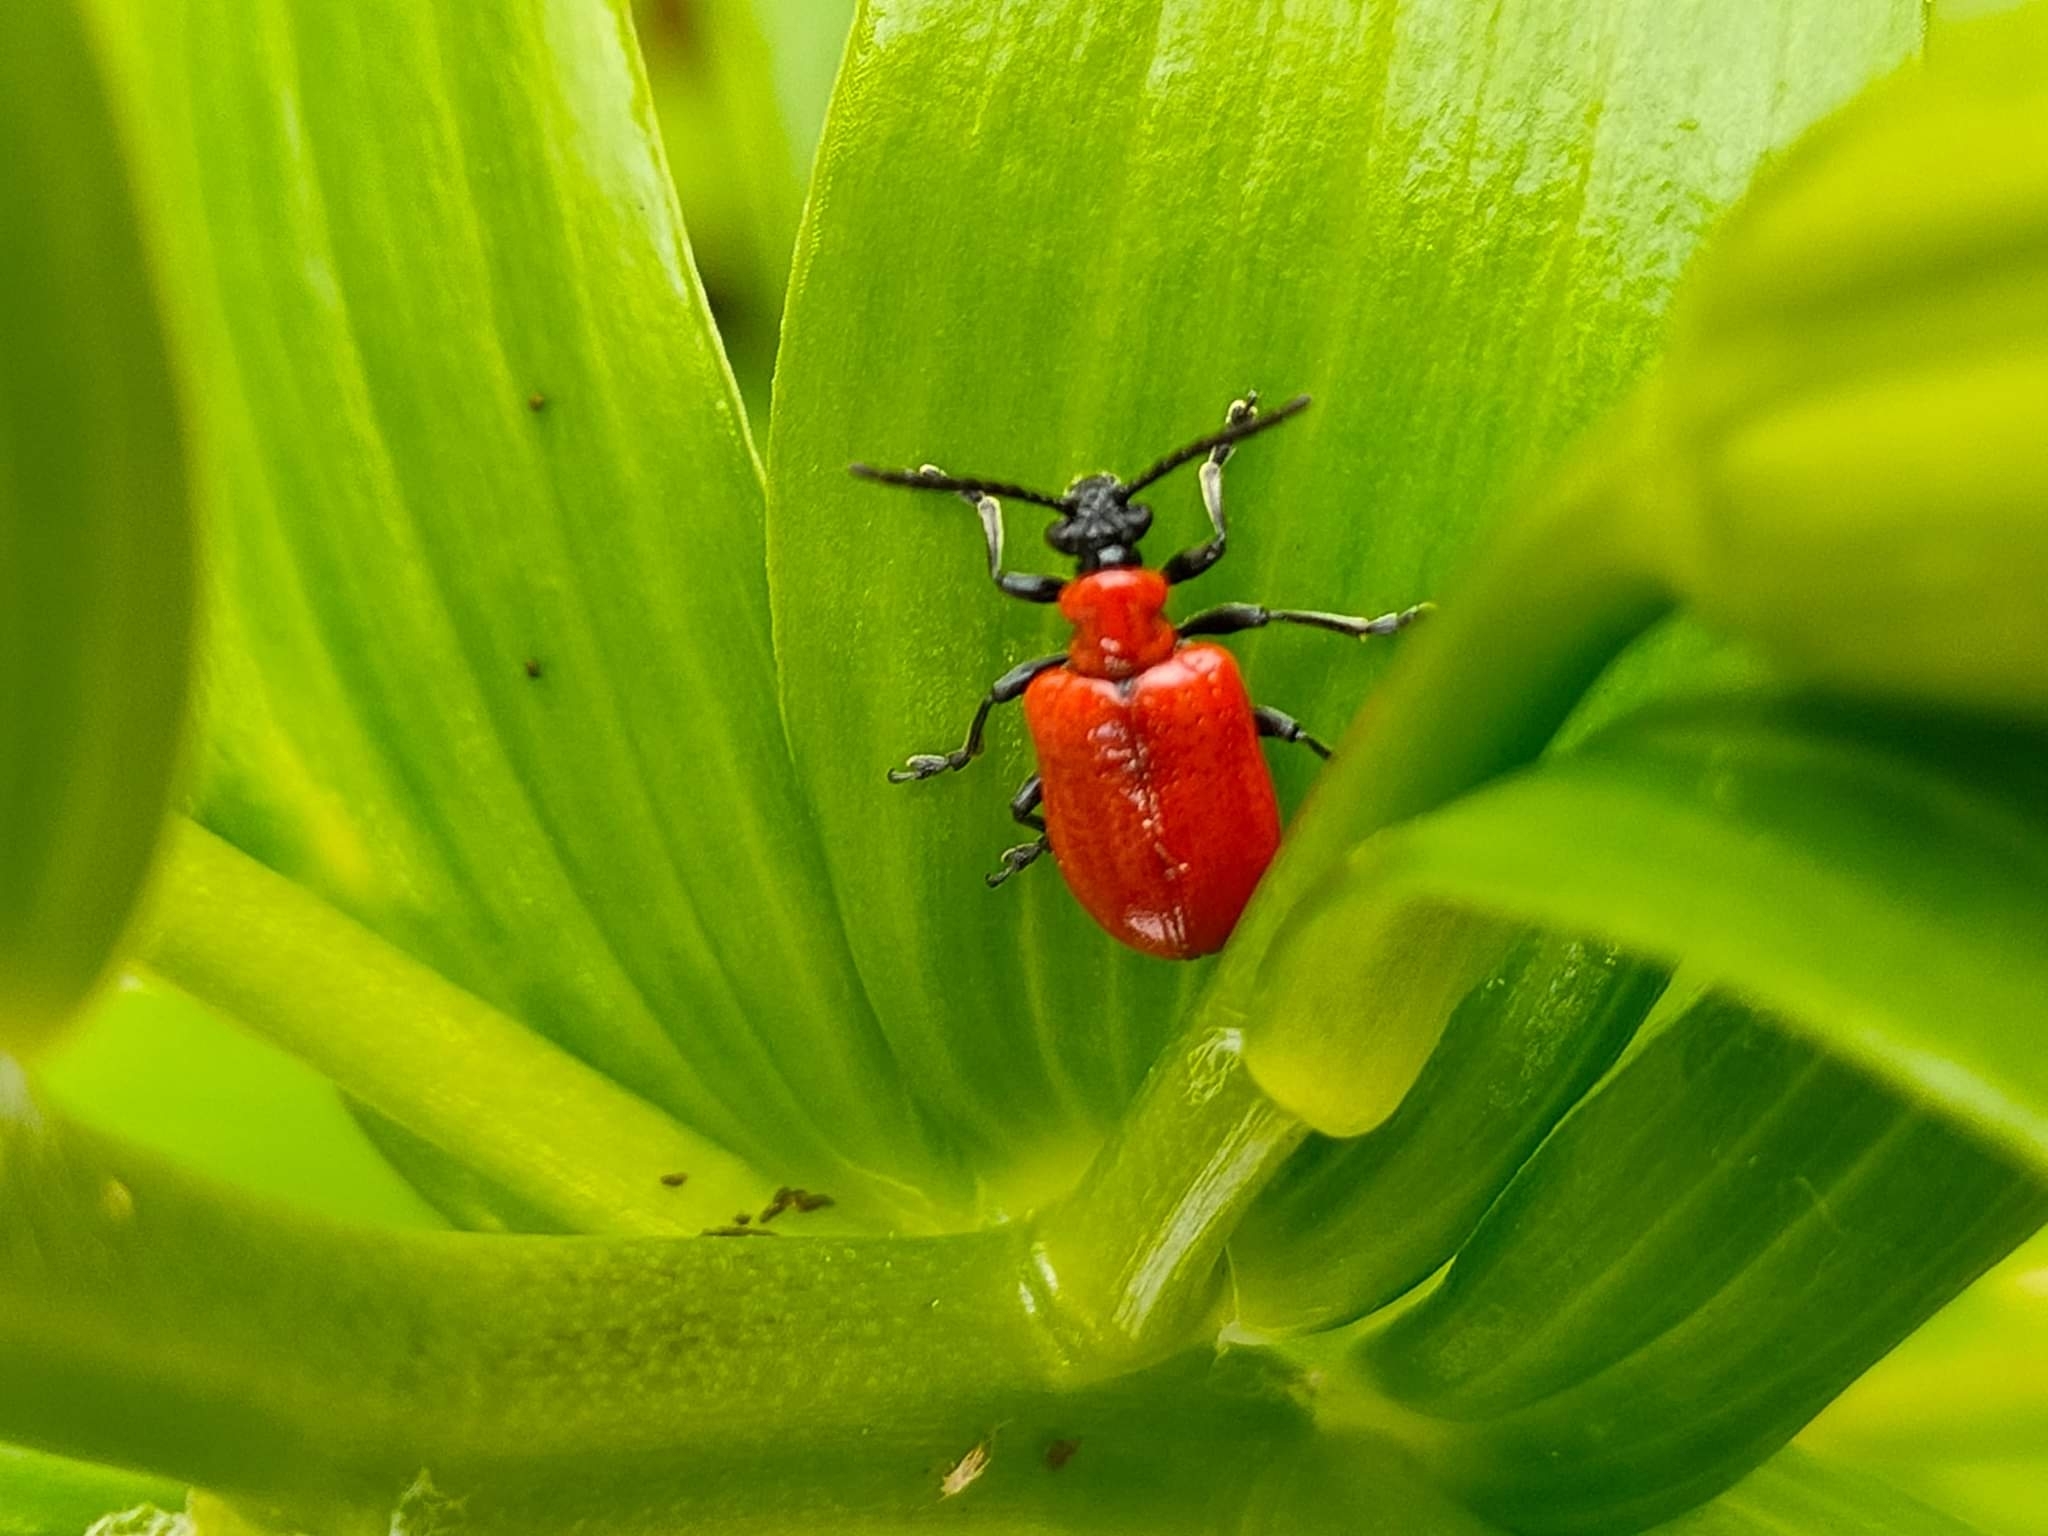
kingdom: Animalia
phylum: Arthropoda
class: Insecta
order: Coleoptera
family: Chrysomelidae
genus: Lilioceris
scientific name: Lilioceris lilii
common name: Lily beetle
